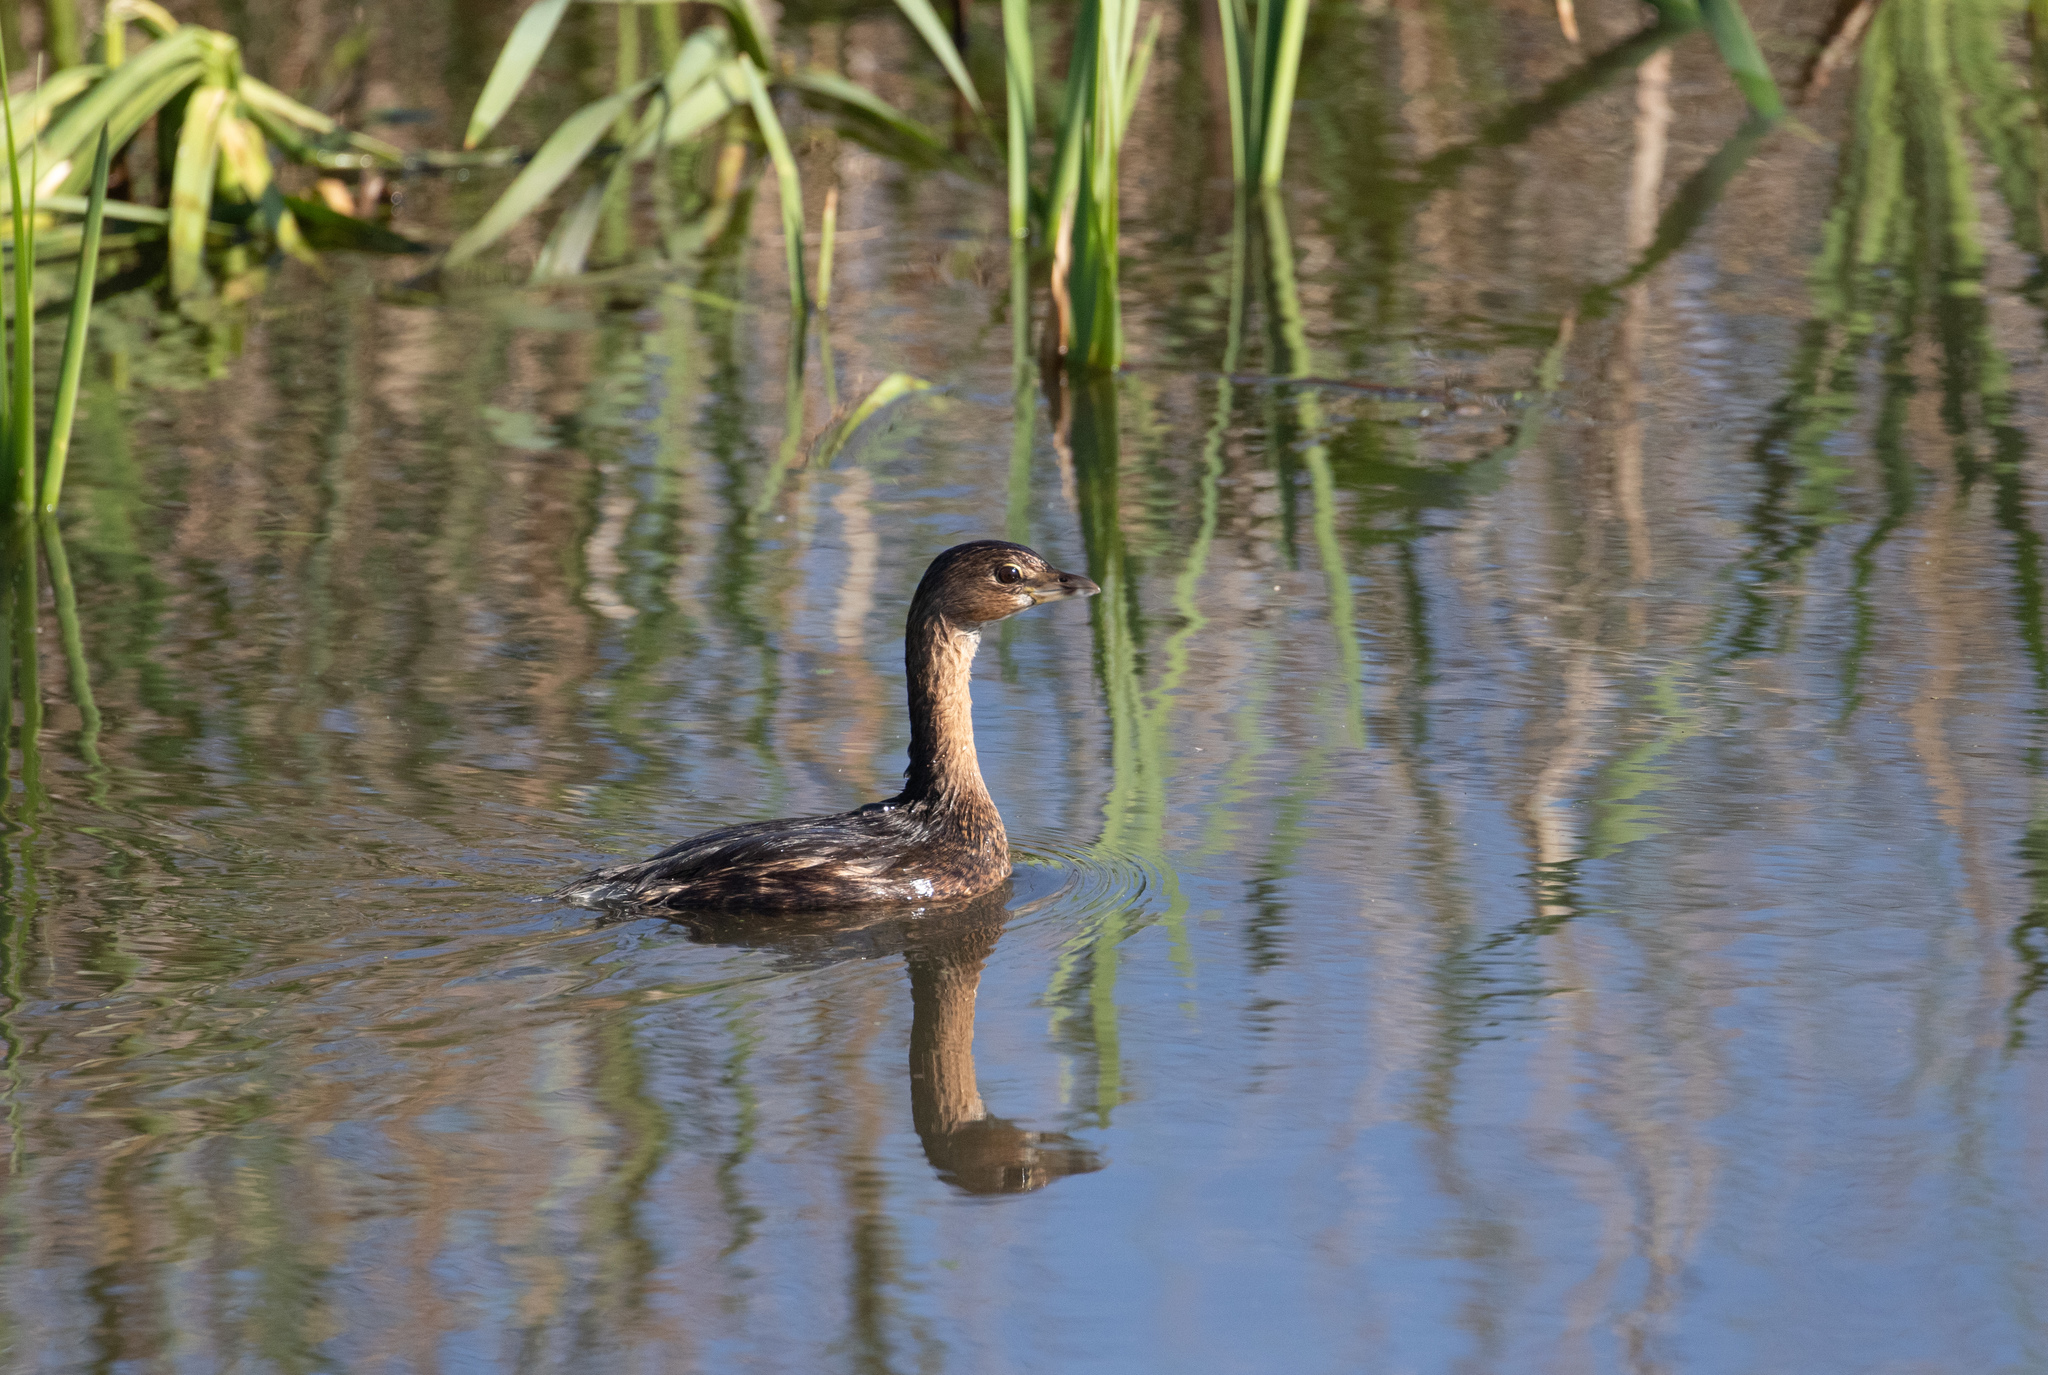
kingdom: Animalia
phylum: Chordata
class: Aves
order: Podicipediformes
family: Podicipedidae
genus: Podilymbus
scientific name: Podilymbus podiceps
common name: Pied-billed grebe
